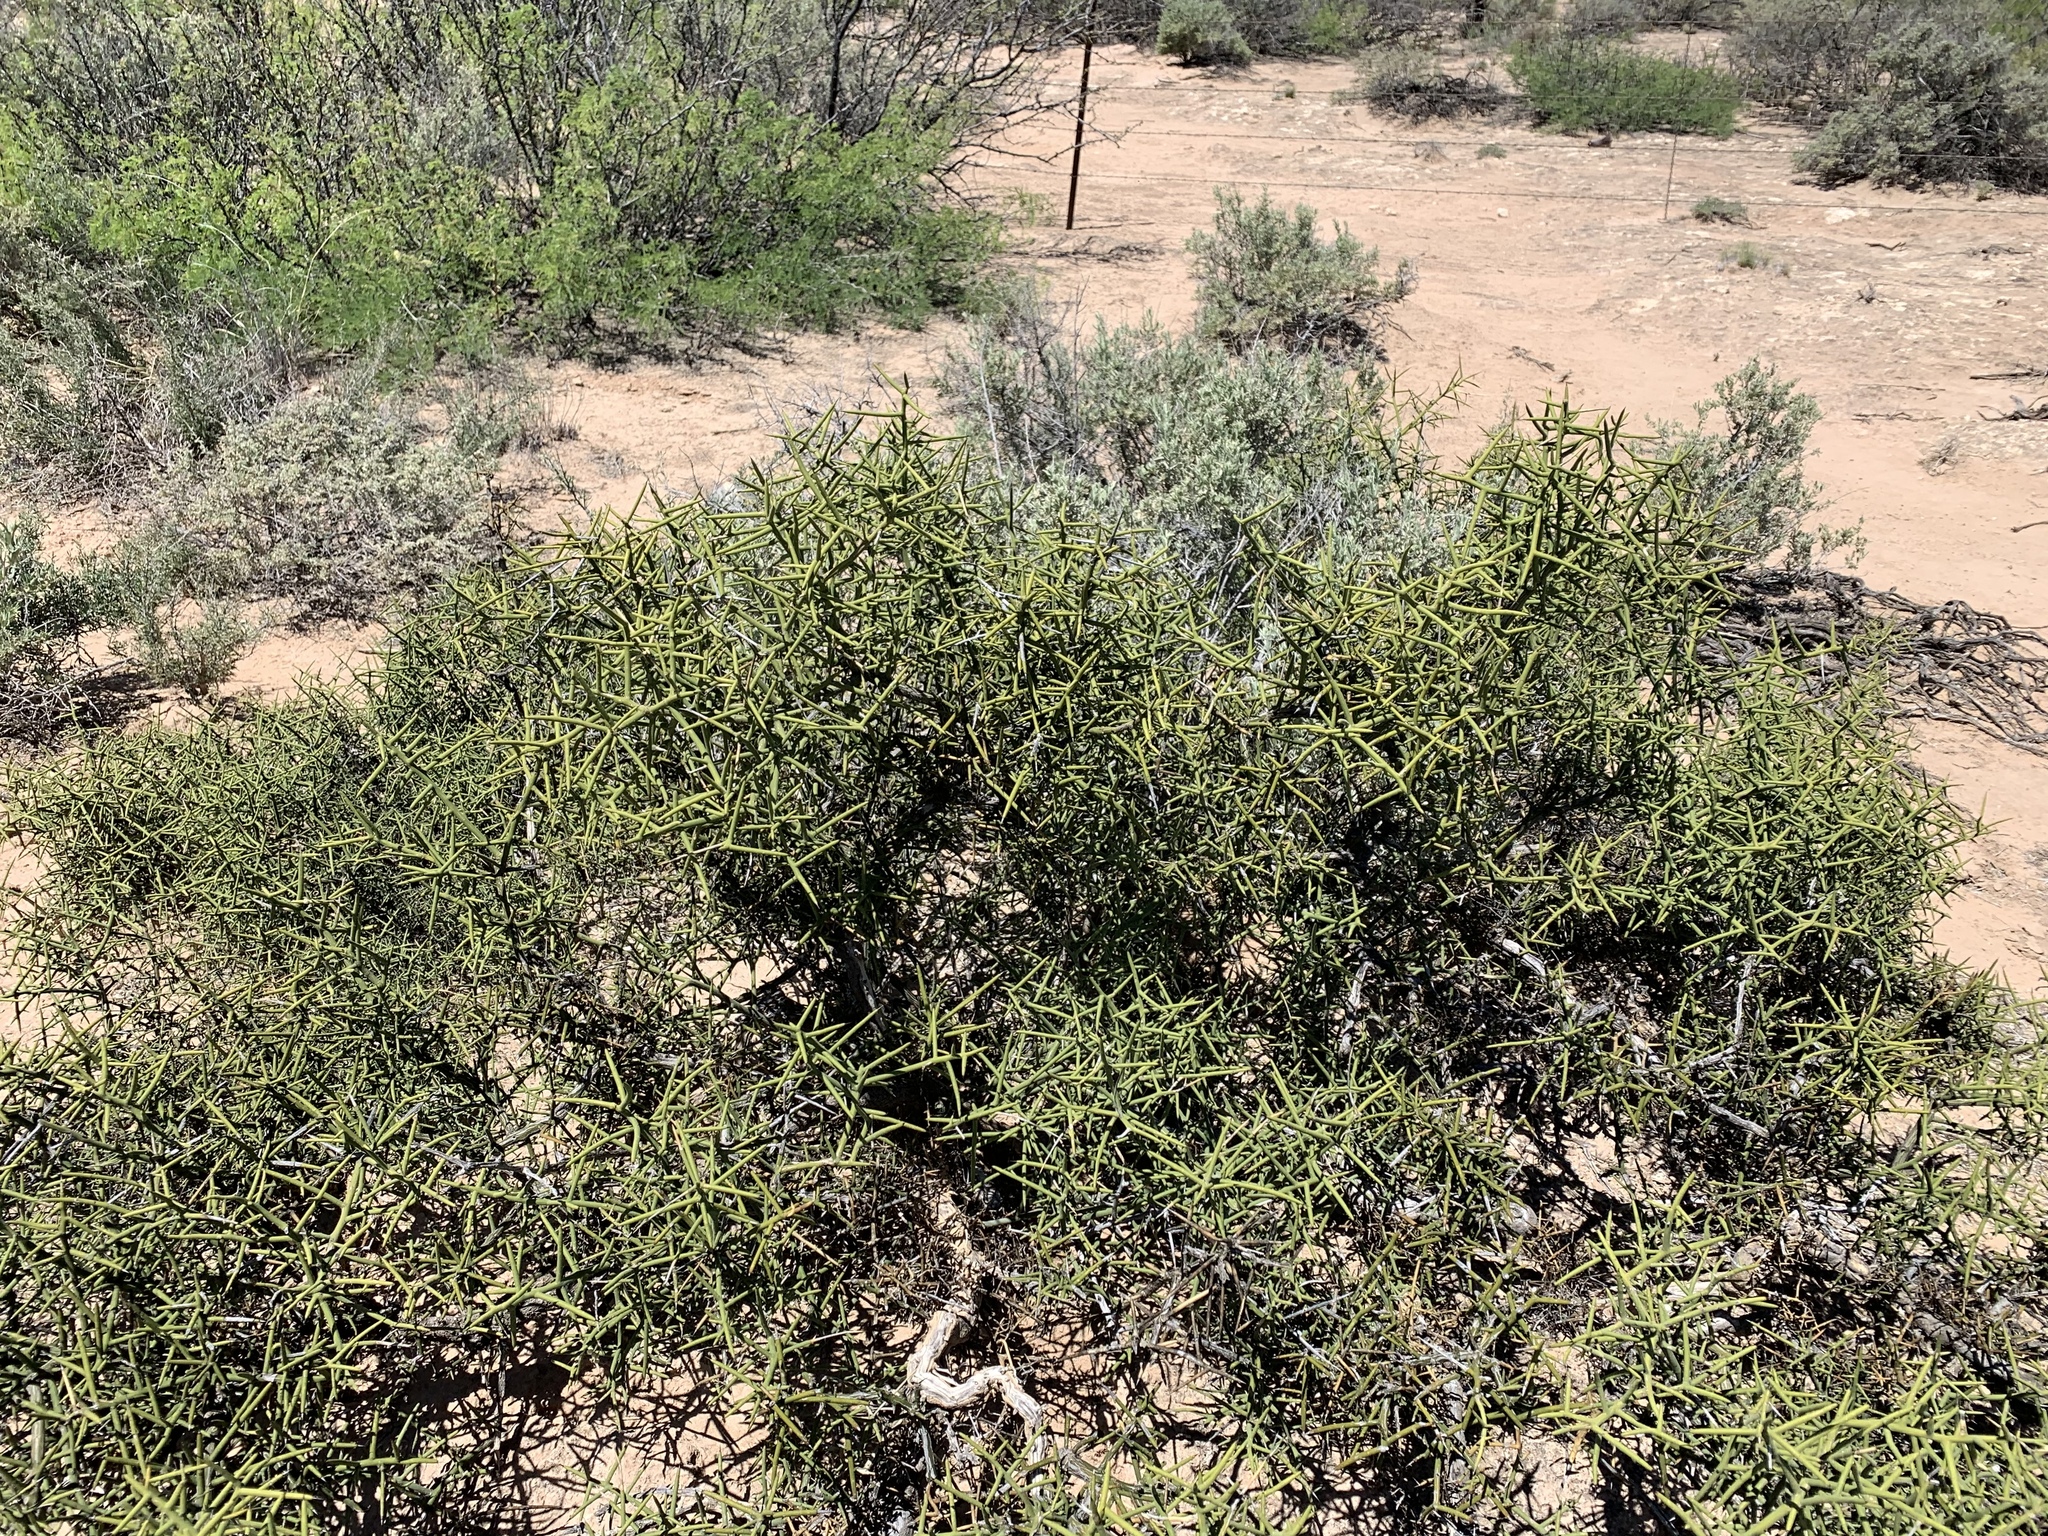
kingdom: Plantae
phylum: Tracheophyta
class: Magnoliopsida
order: Brassicales
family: Koeberliniaceae
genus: Koeberlinia
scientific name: Koeberlinia spinosa
